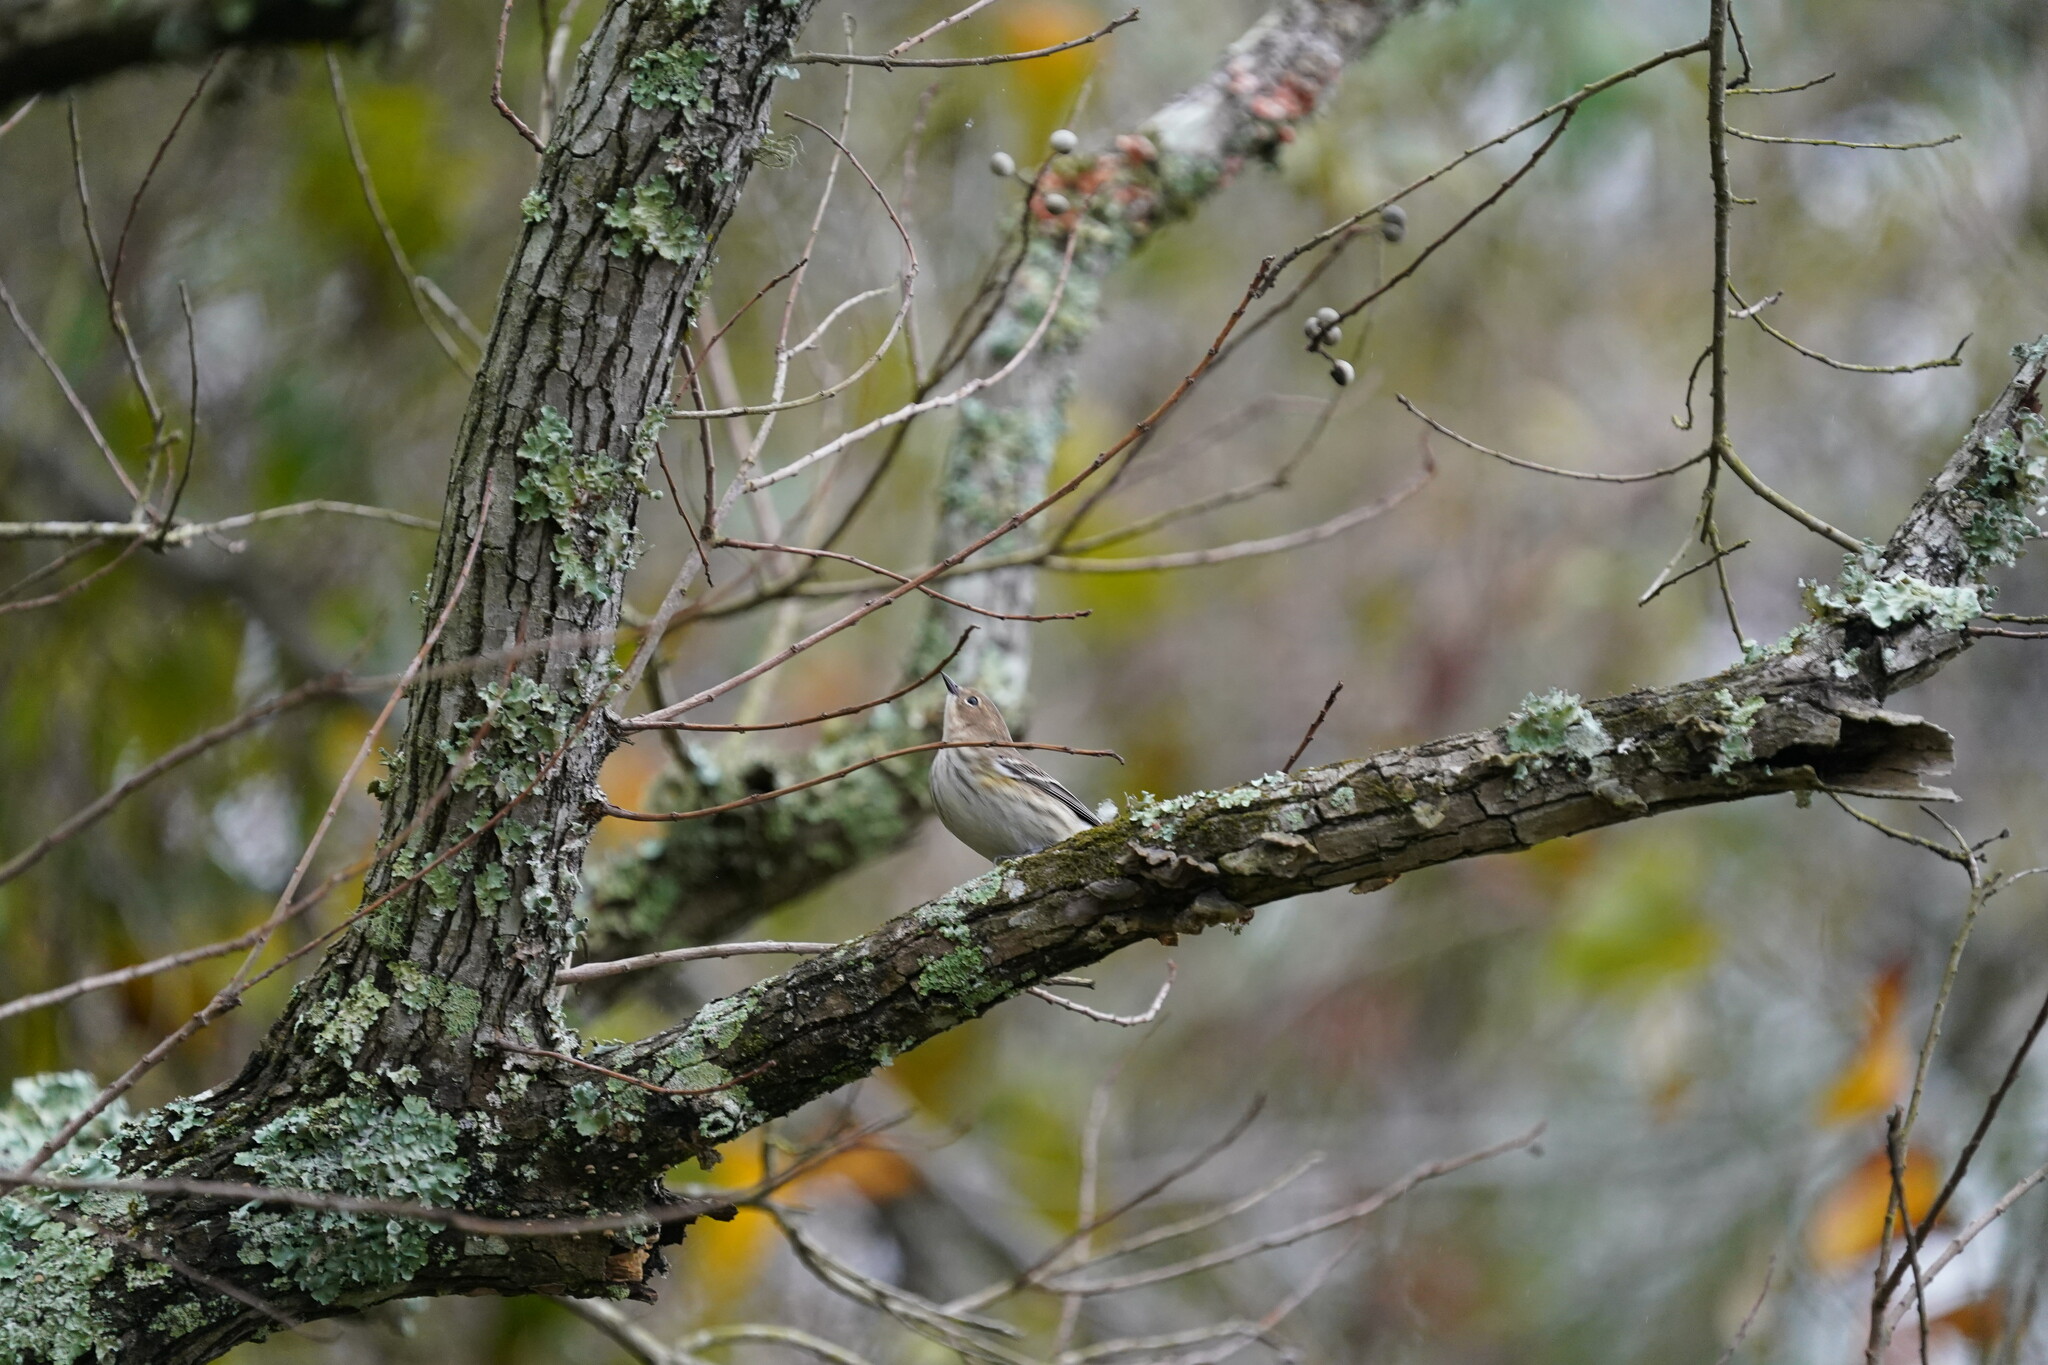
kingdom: Animalia
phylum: Chordata
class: Aves
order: Passeriformes
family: Parulidae
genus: Setophaga
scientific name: Setophaga coronata
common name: Myrtle warbler
